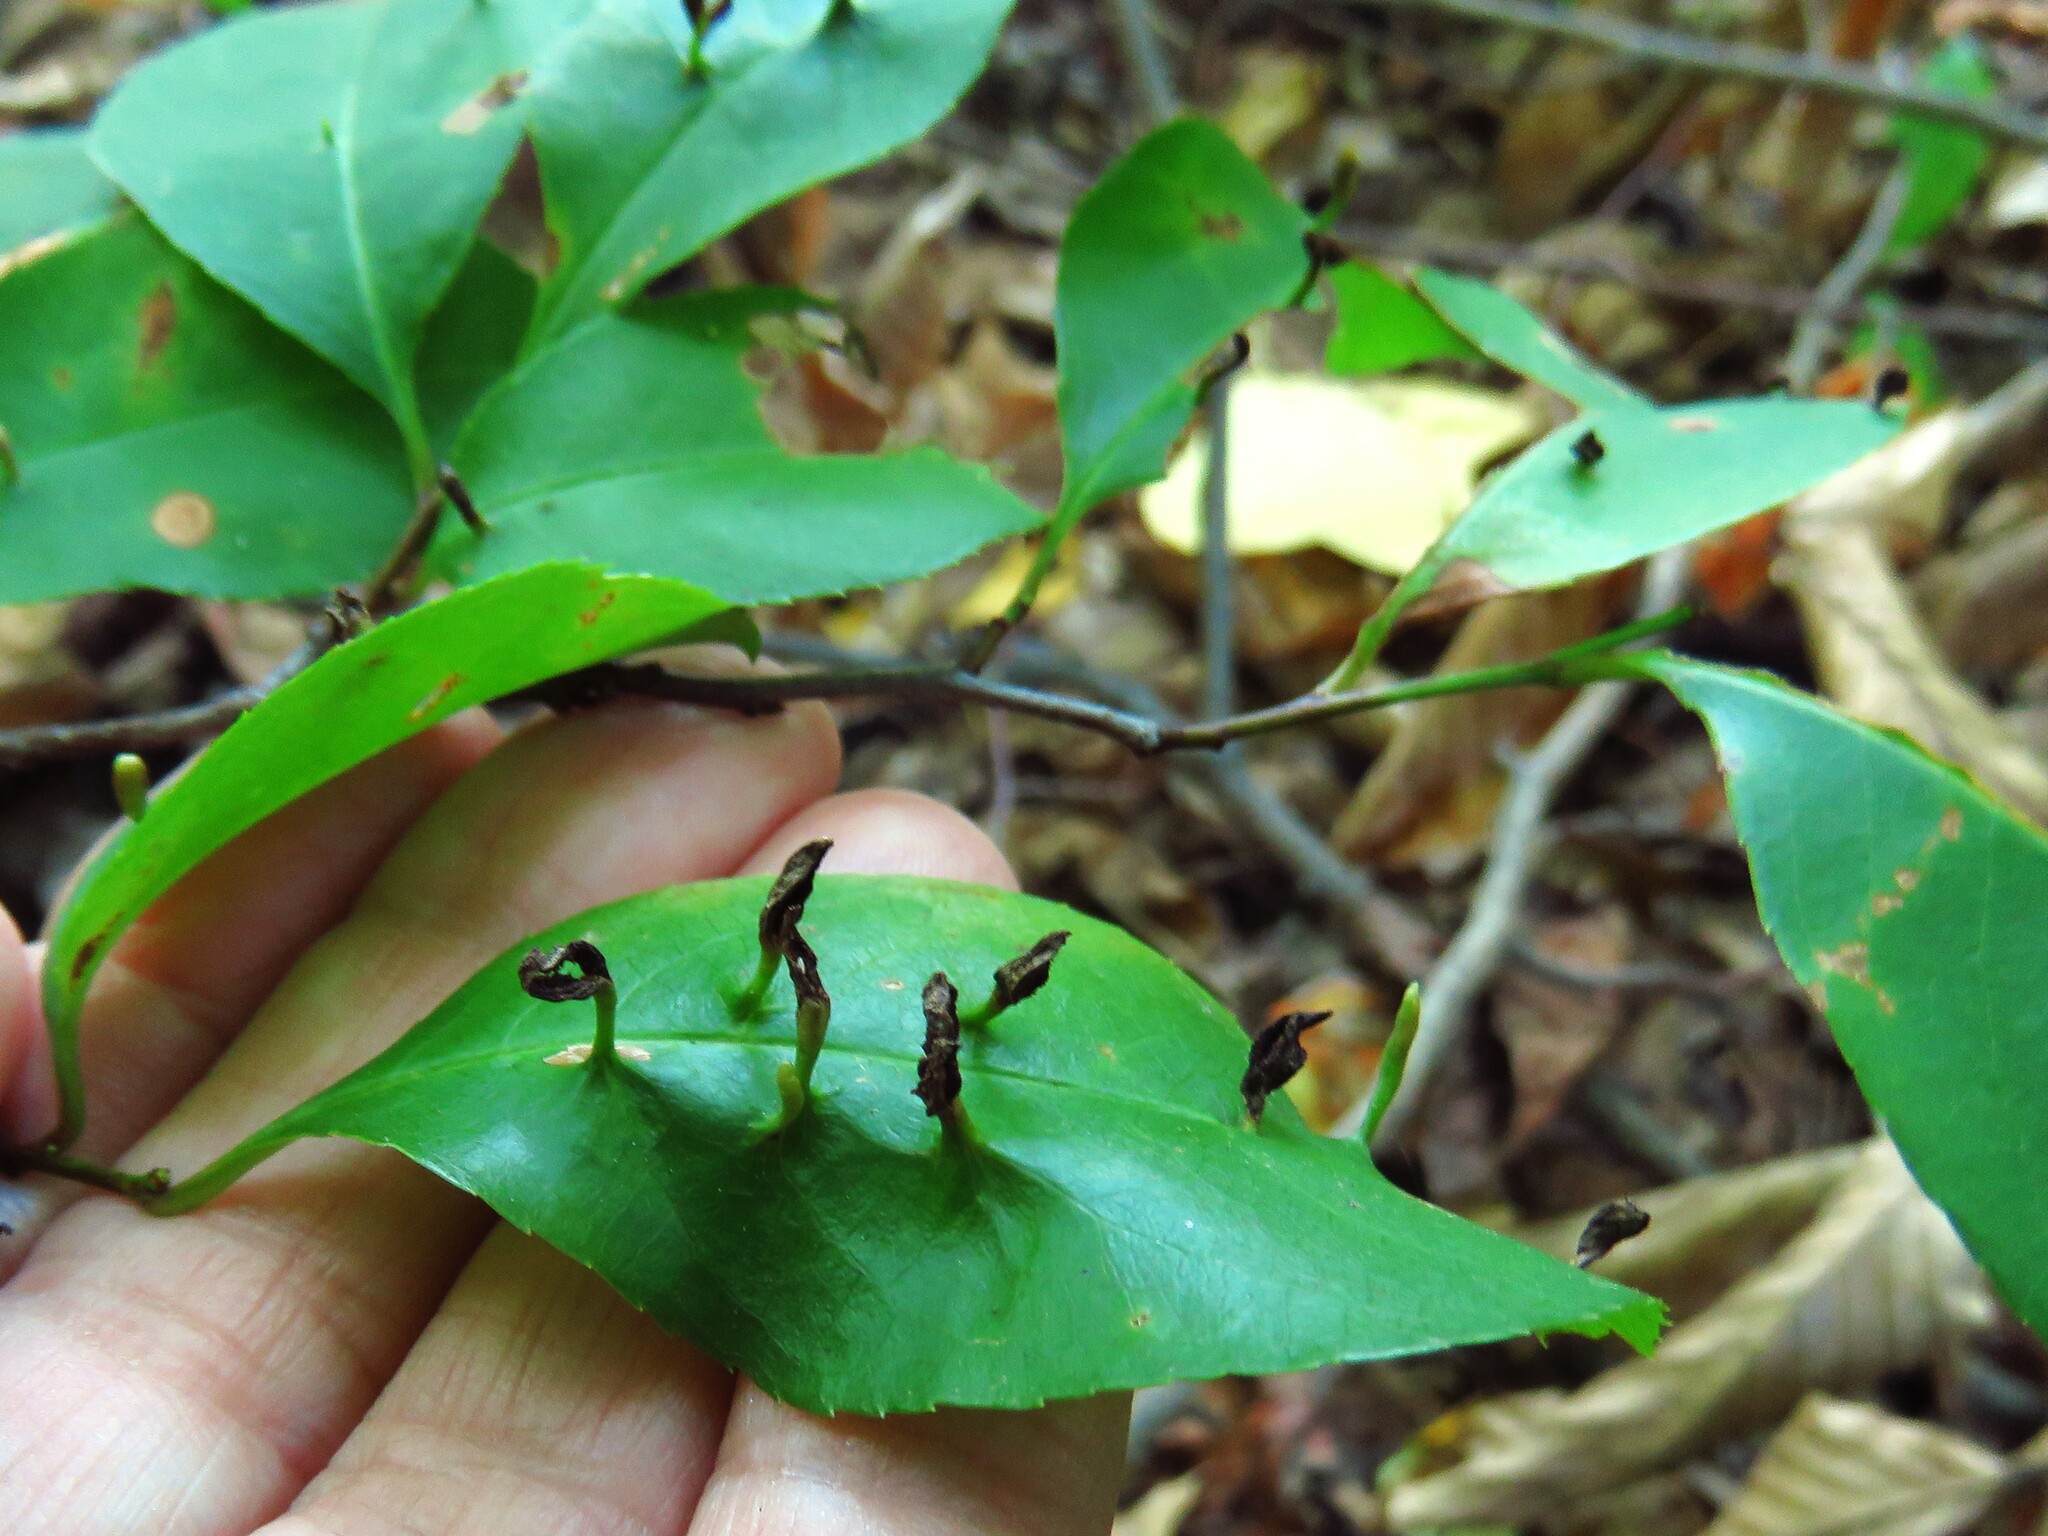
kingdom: Animalia
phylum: Arthropoda
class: Arachnida
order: Trombidiformes
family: Eriophyidae
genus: Eriophyes
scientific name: Eriophyes
